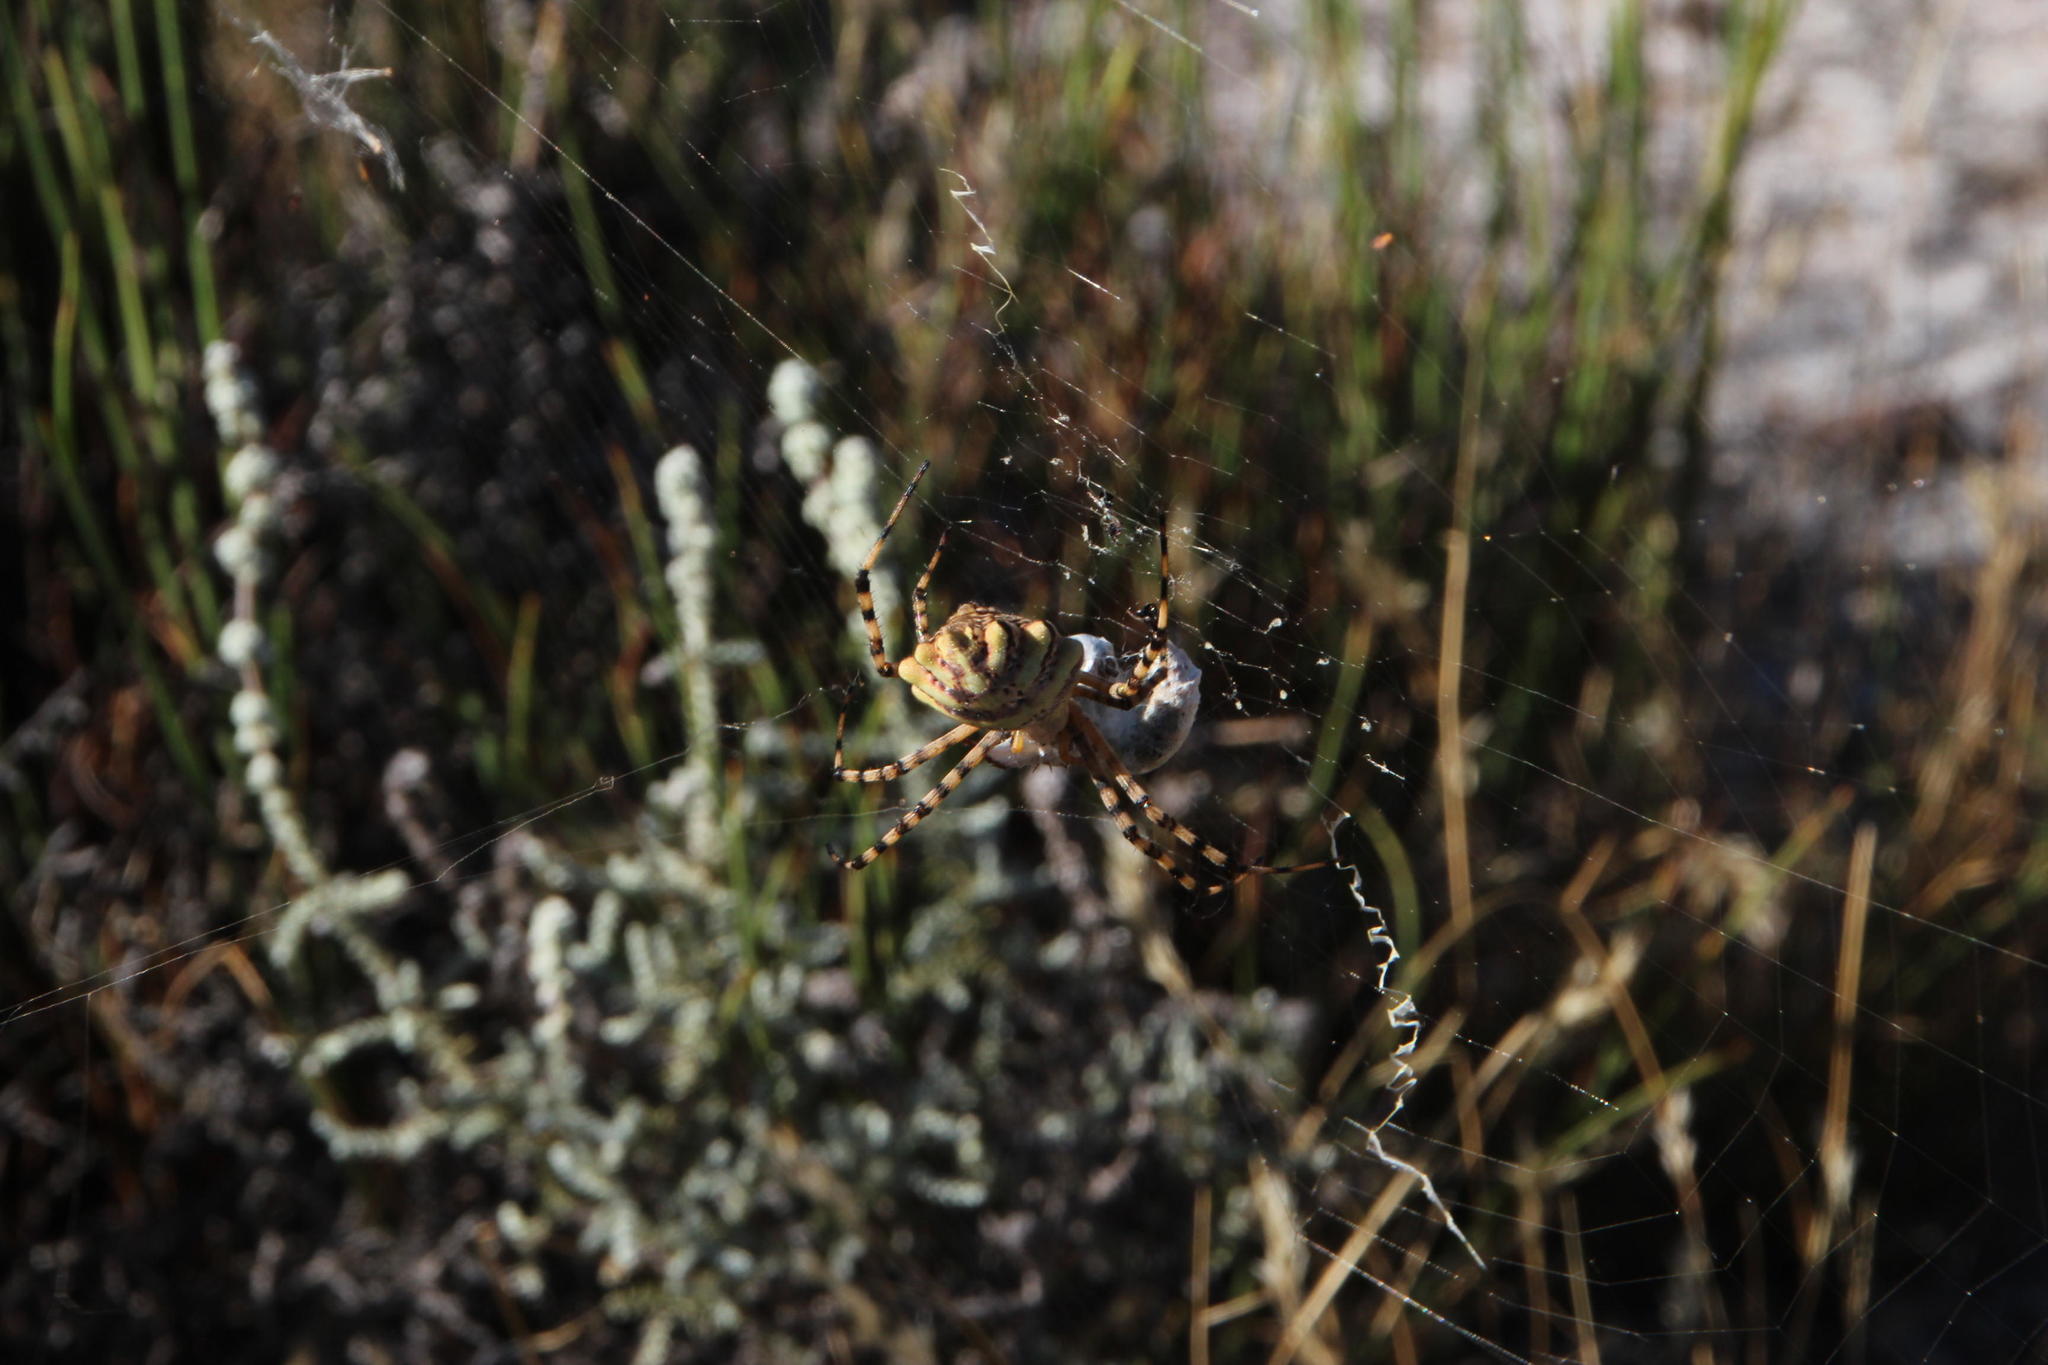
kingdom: Animalia
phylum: Arthropoda
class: Arachnida
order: Araneae
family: Araneidae
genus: Argiope
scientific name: Argiope australis
